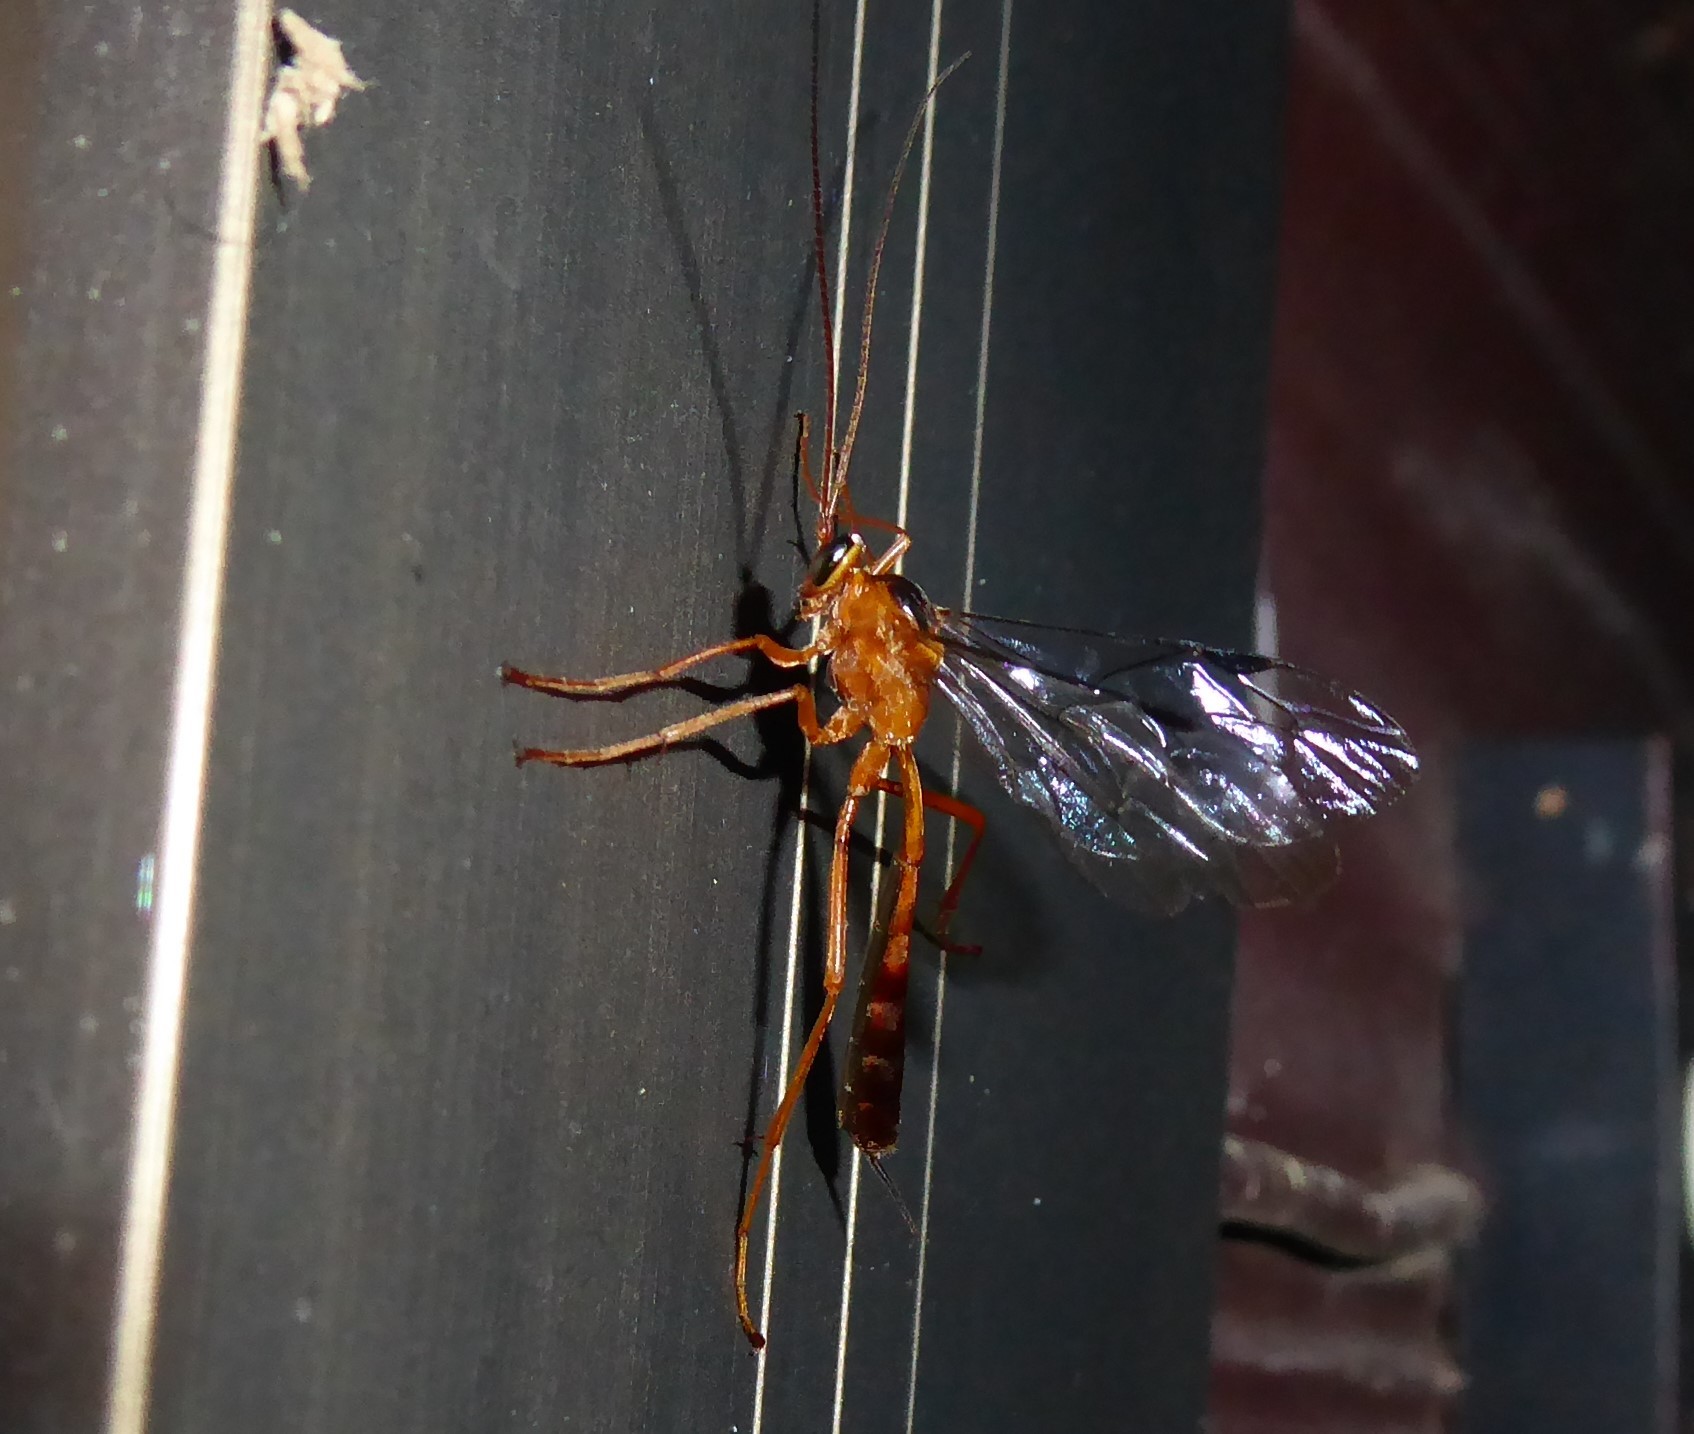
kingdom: Animalia
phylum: Arthropoda
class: Insecta
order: Hymenoptera
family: Ichneumonidae
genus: Netelia
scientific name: Netelia ephippiata
